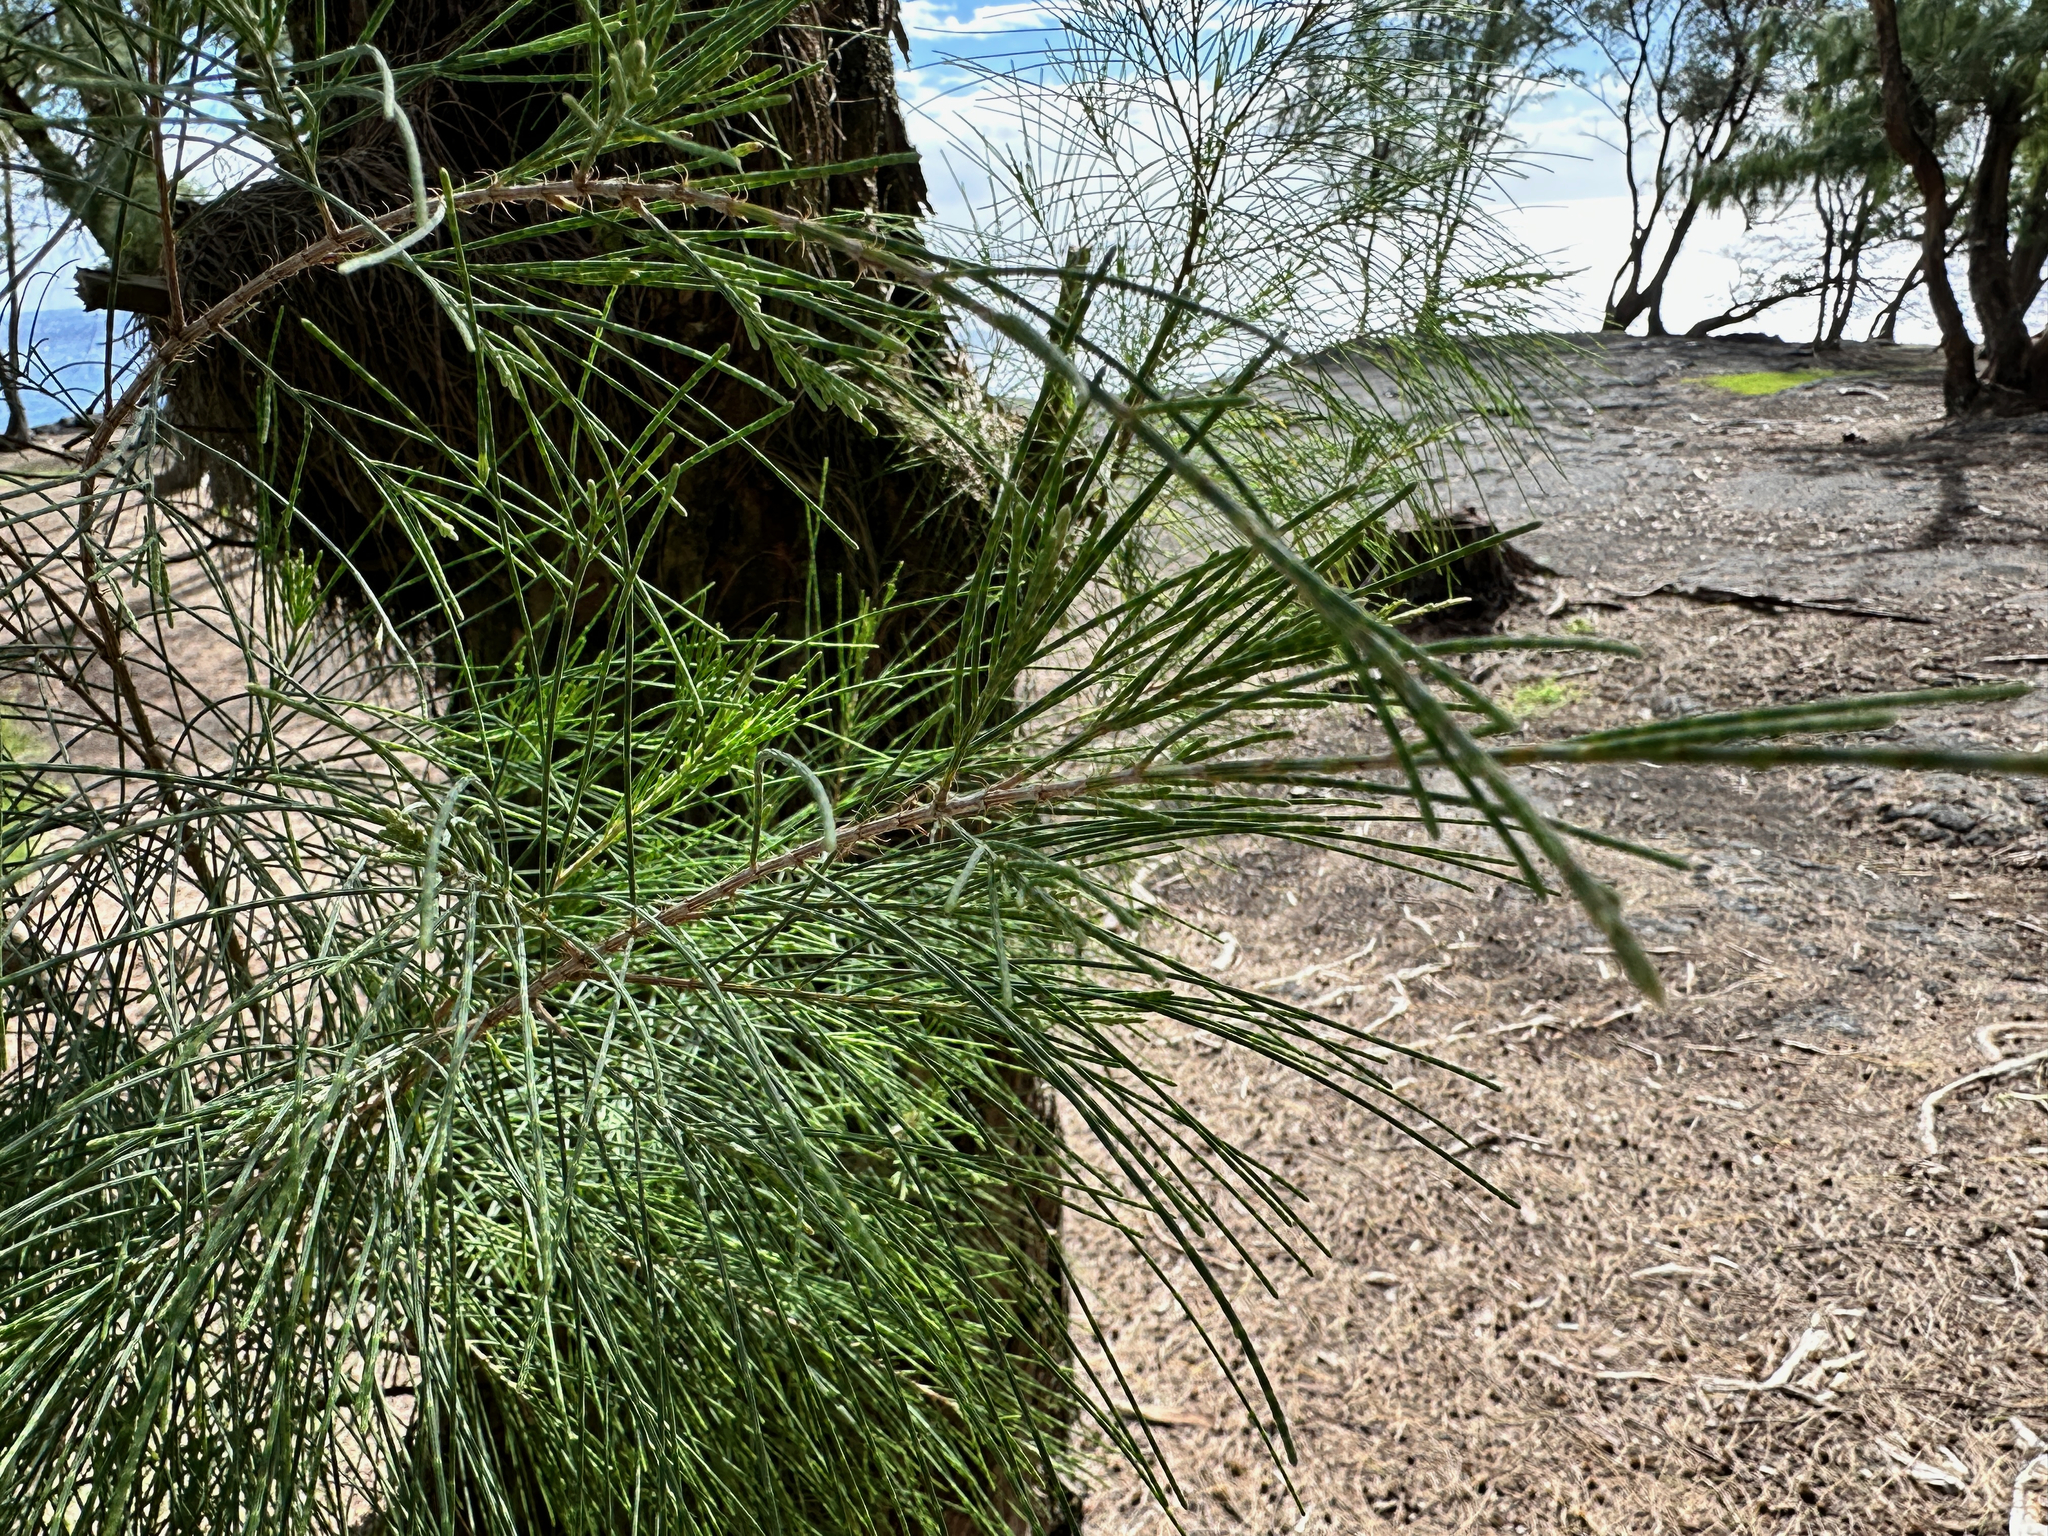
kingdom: Plantae
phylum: Tracheophyta
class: Magnoliopsida
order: Fagales
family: Casuarinaceae
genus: Casuarina
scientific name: Casuarina equisetifolia
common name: Beach sheoak
